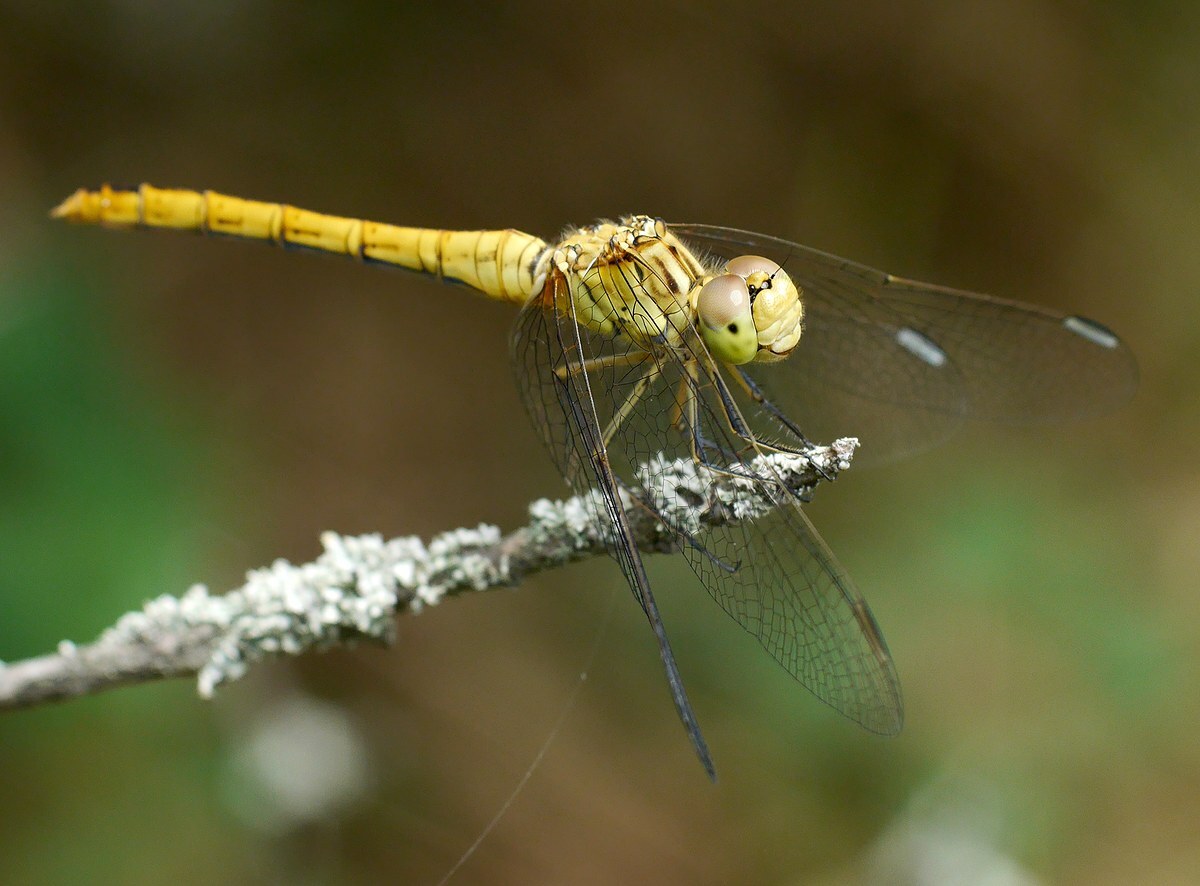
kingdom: Animalia
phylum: Arthropoda
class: Insecta
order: Odonata
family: Libellulidae
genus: Sympetrum
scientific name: Sympetrum meridionale
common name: Southern darter
